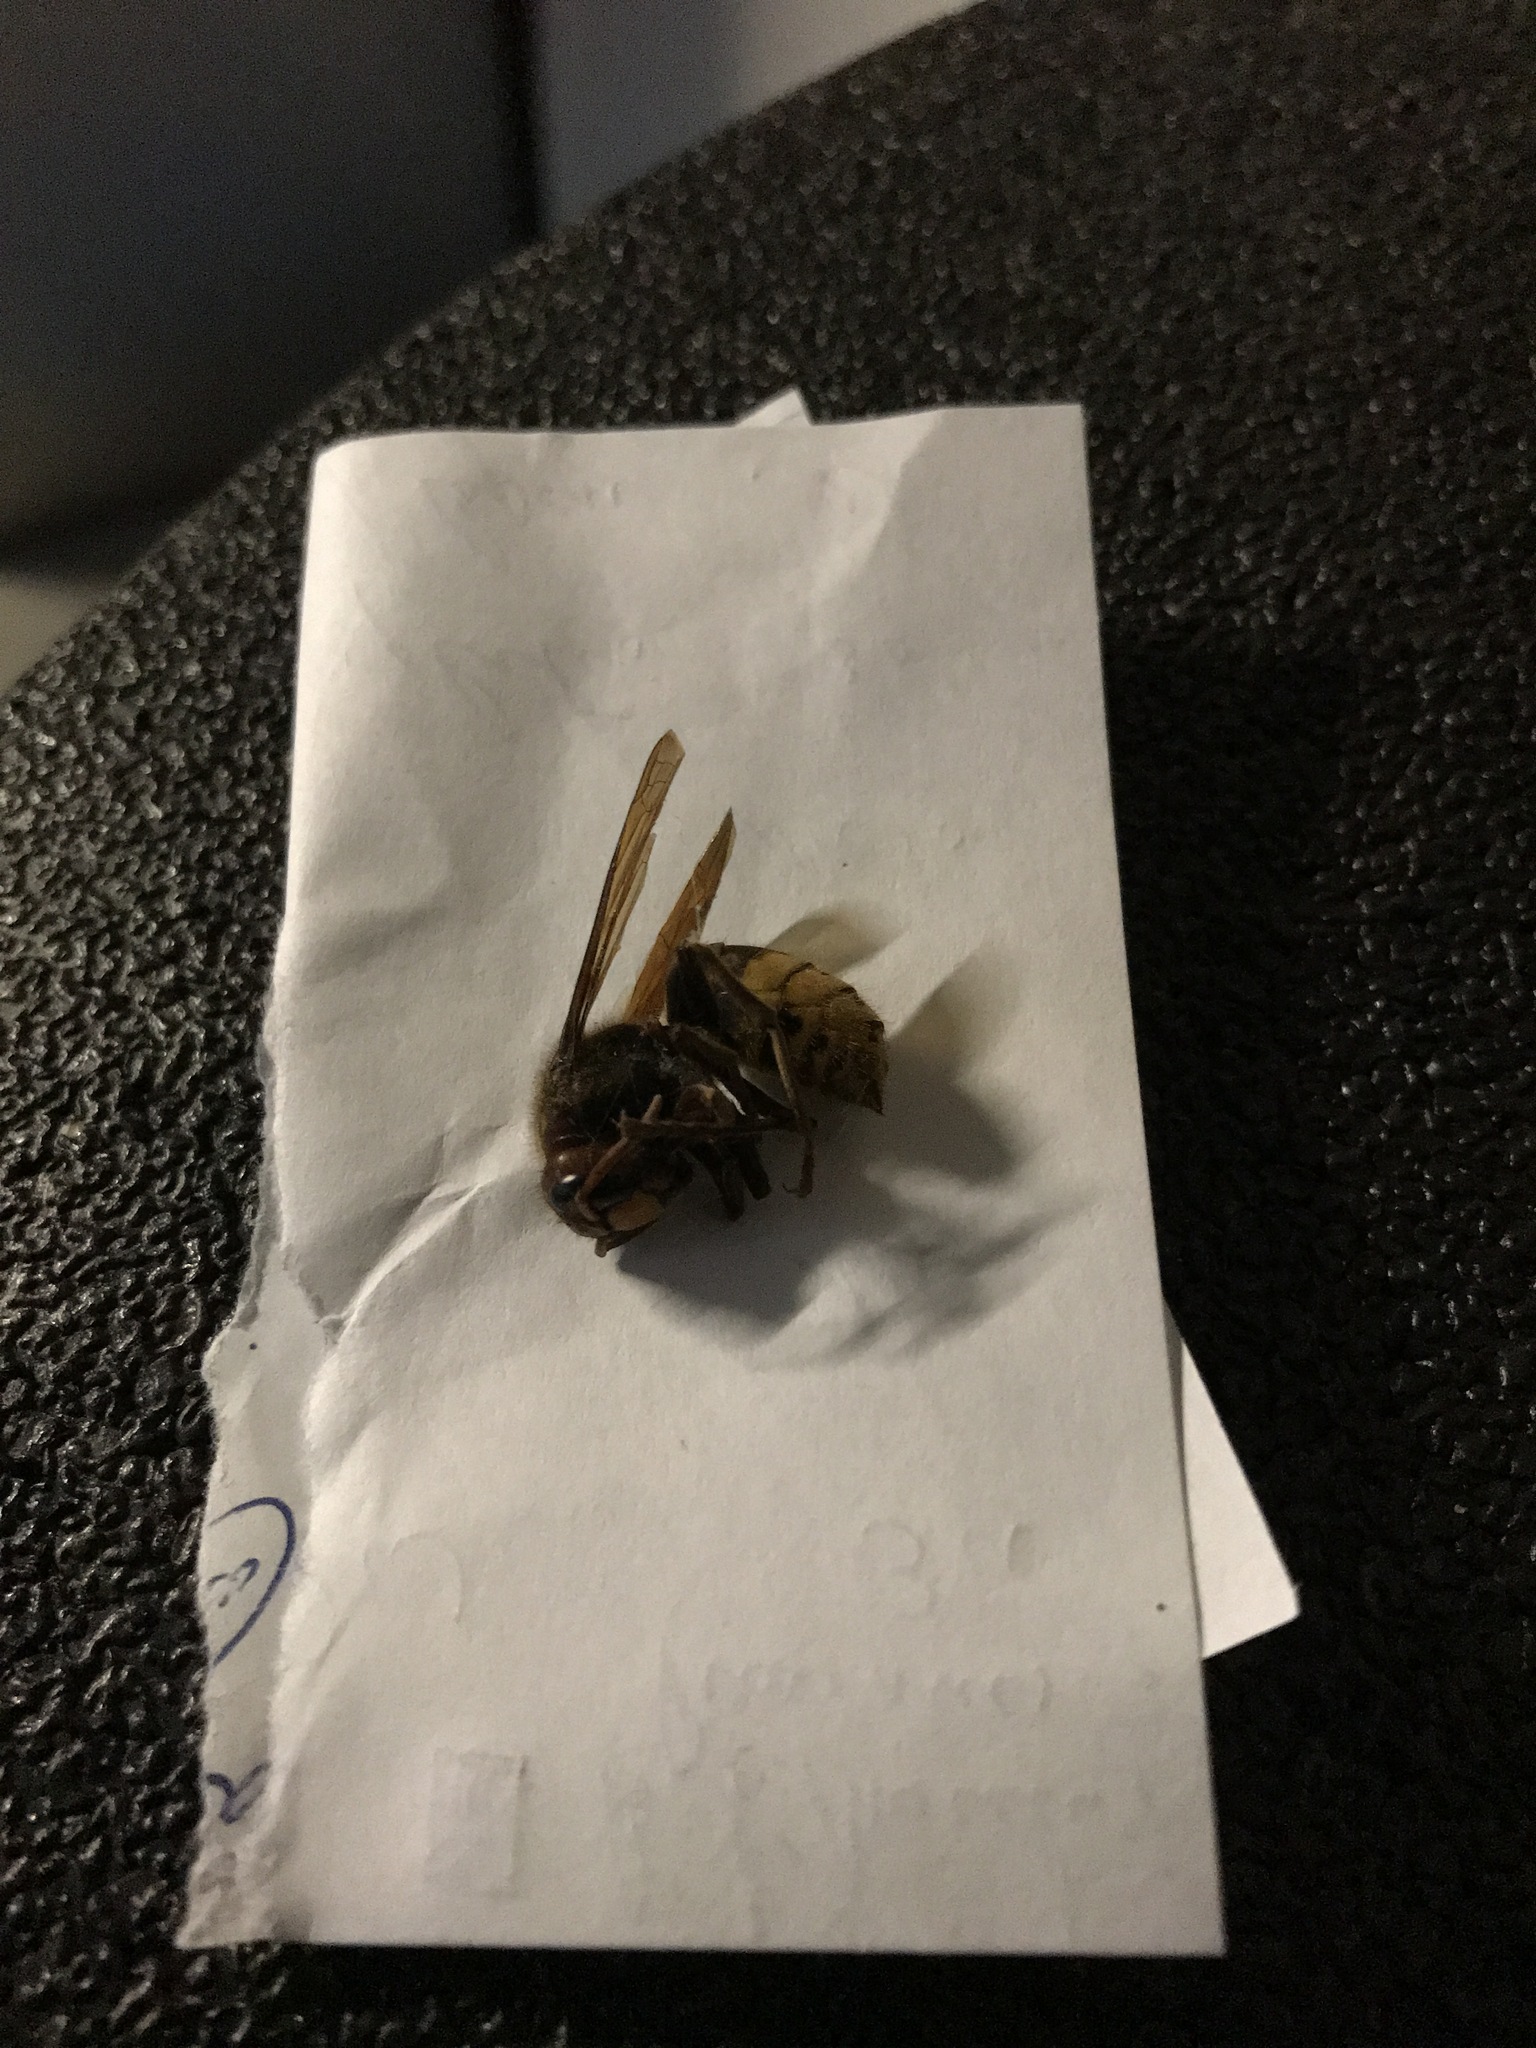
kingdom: Animalia
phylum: Arthropoda
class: Insecta
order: Hymenoptera
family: Vespidae
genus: Vespa
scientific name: Vespa crabro
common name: Hornet
